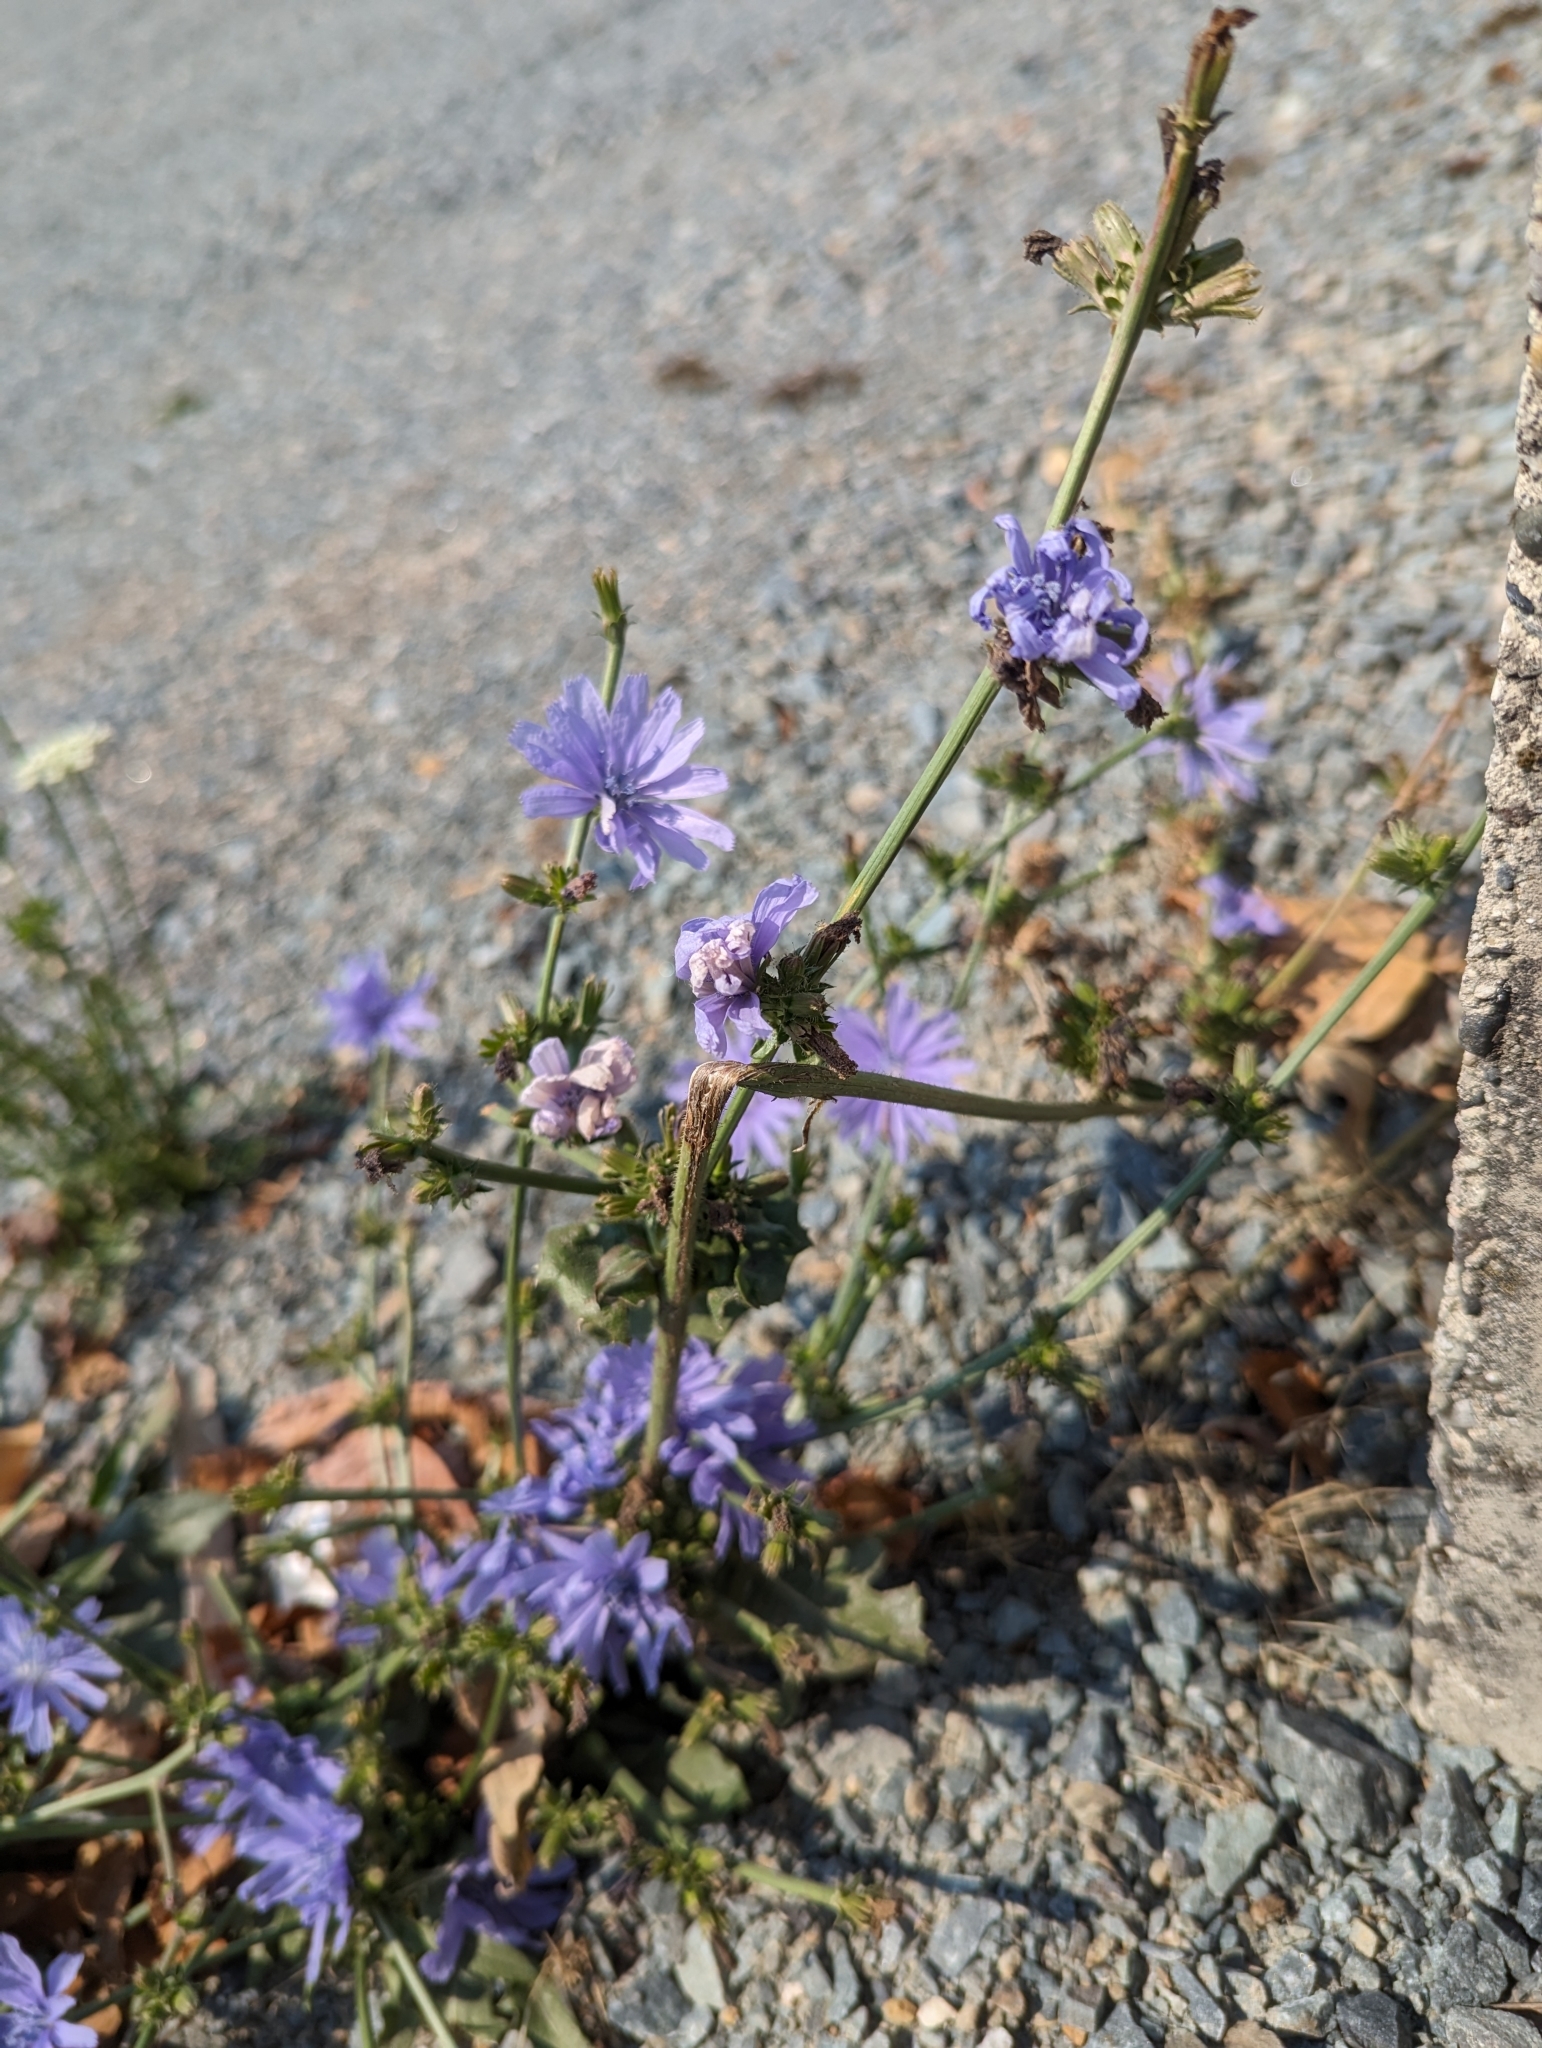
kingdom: Plantae
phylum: Tracheophyta
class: Magnoliopsida
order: Asterales
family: Asteraceae
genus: Cichorium
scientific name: Cichorium intybus
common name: Chicory
